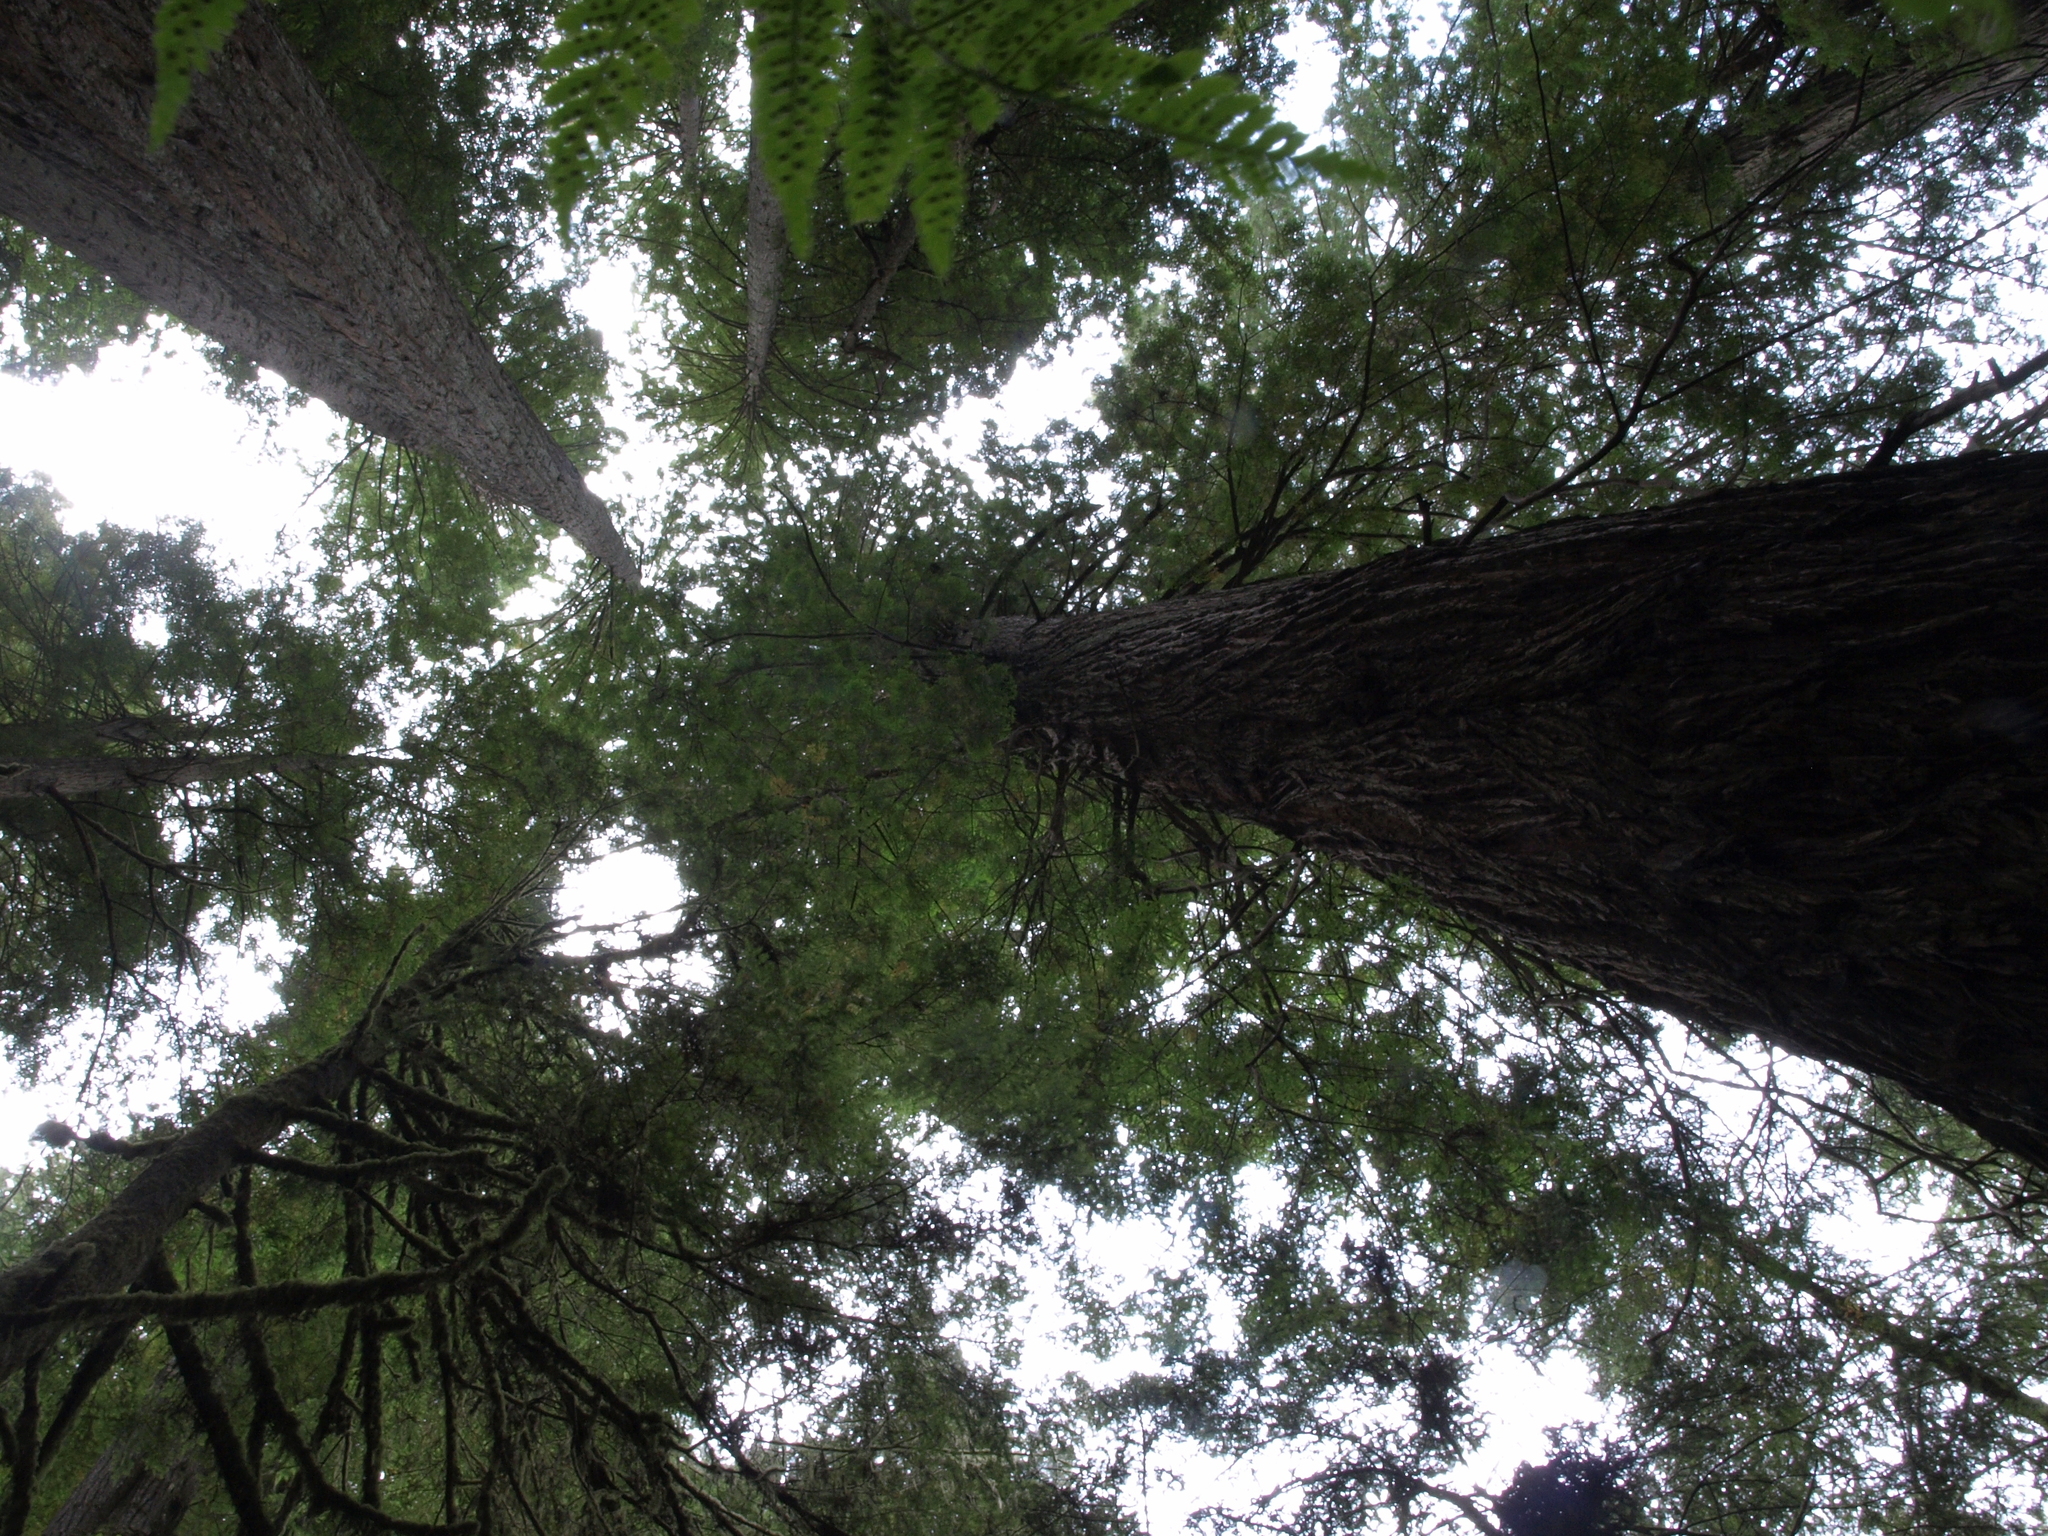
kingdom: Plantae
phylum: Tracheophyta
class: Pinopsida
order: Pinales
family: Cupressaceae
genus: Sequoia
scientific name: Sequoia sempervirens
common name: Coast redwood
